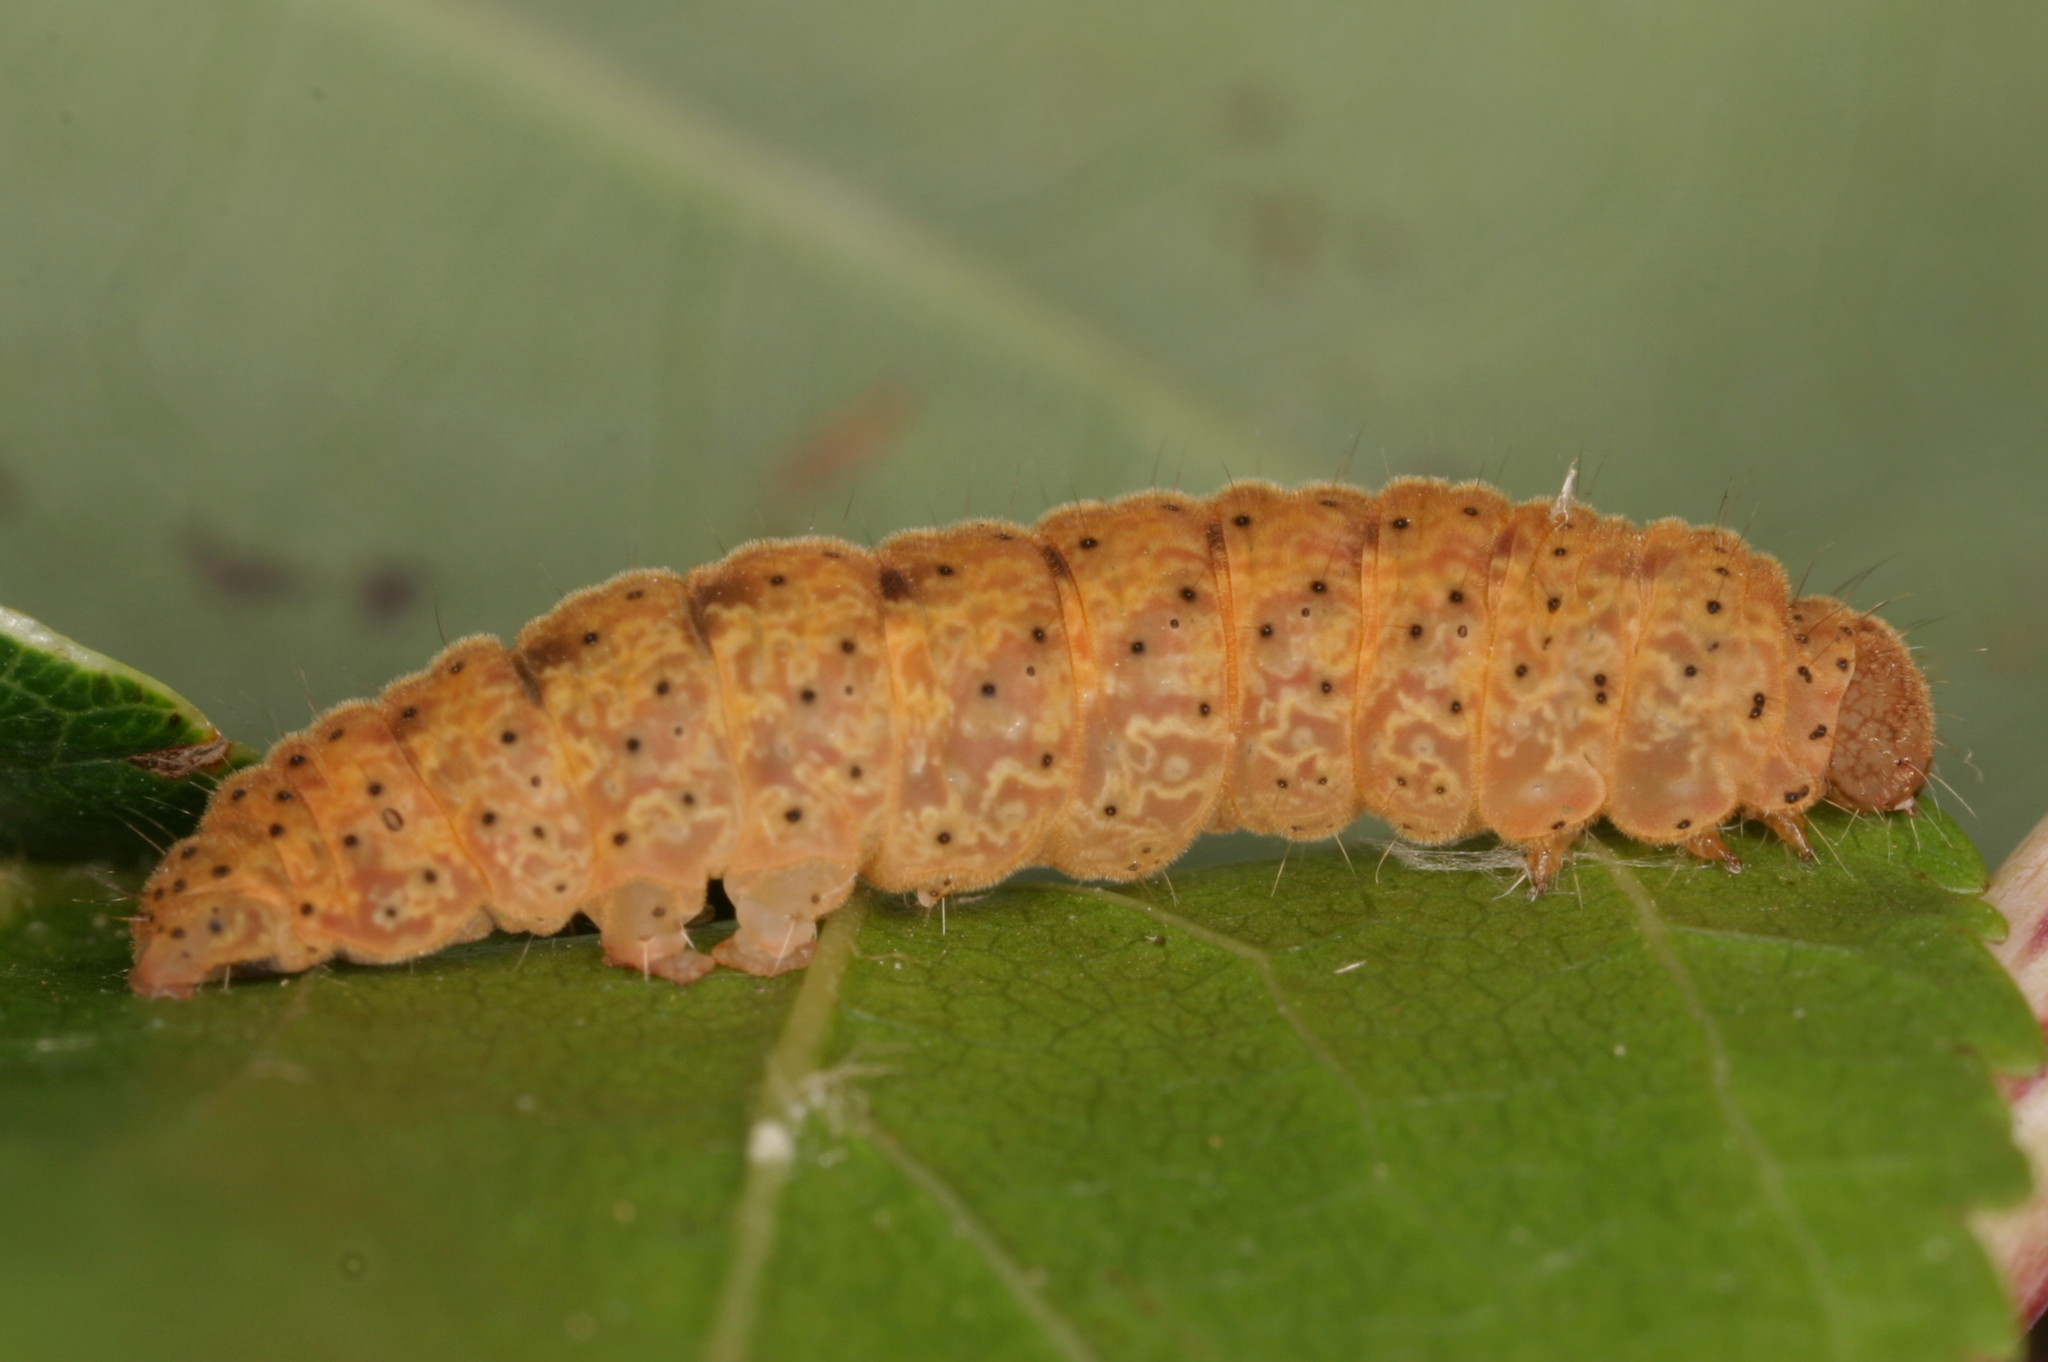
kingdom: Animalia
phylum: Arthropoda
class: Insecta
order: Lepidoptera
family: Erebidae
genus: Trisateles
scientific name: Trisateles emortualis
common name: Olive crescent
